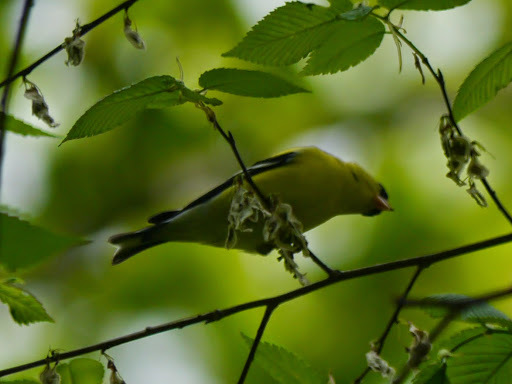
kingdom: Animalia
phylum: Chordata
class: Aves
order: Passeriformes
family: Fringillidae
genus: Spinus
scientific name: Spinus tristis
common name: American goldfinch
